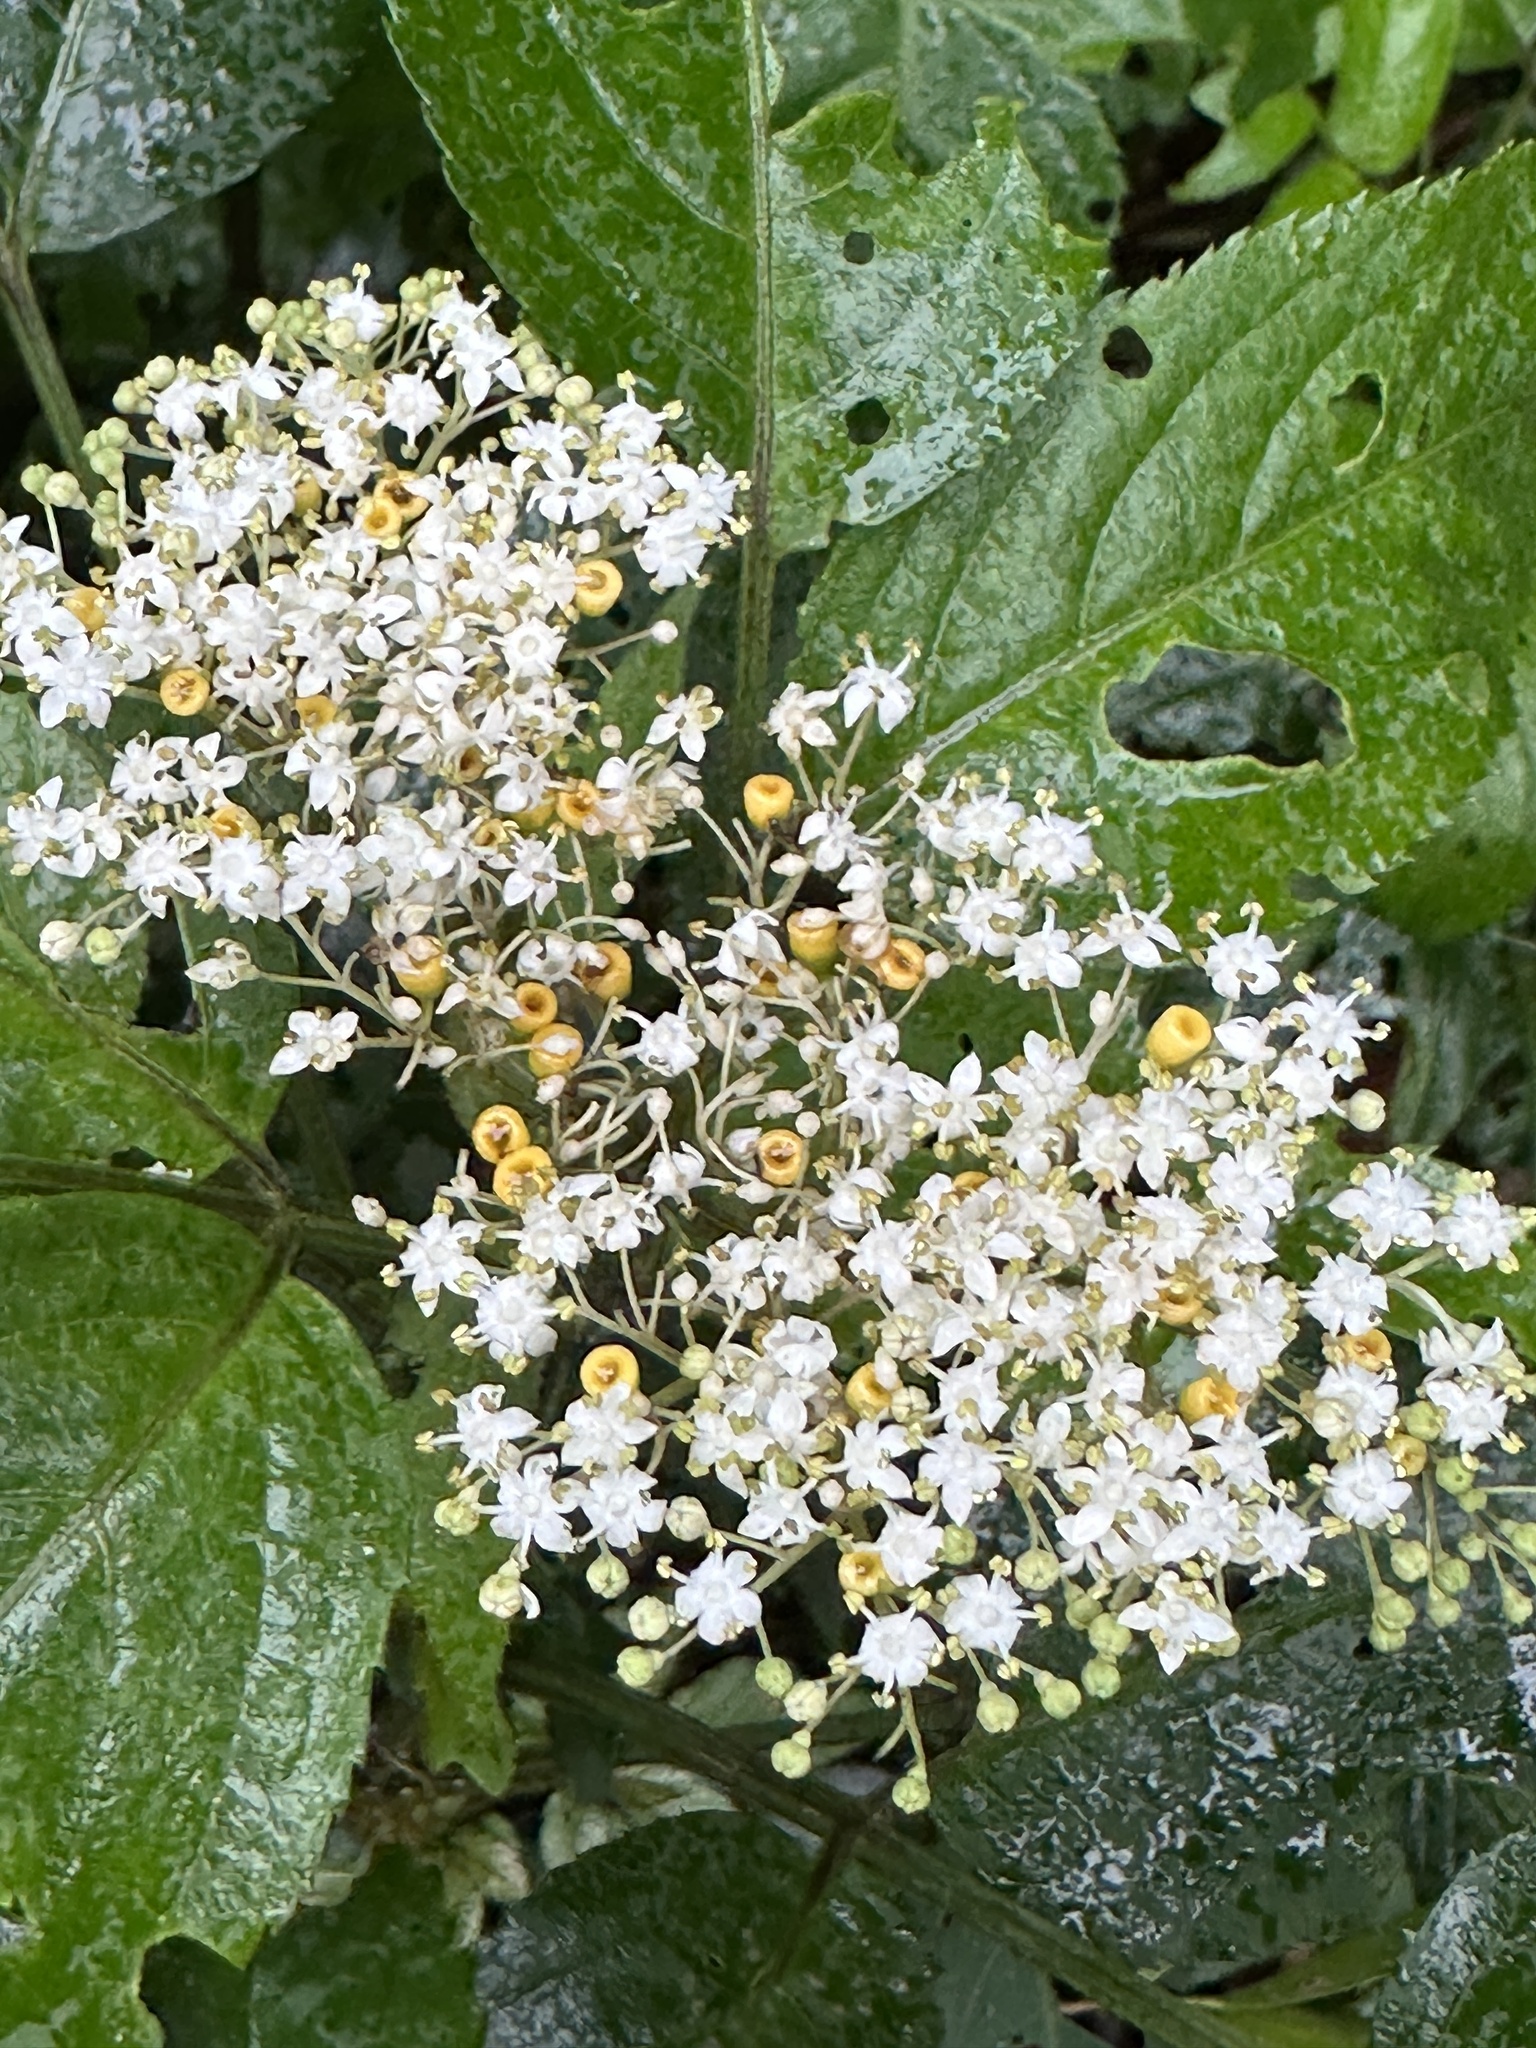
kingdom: Plantae
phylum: Tracheophyta
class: Magnoliopsida
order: Dipsacales
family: Viburnaceae
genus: Sambucus
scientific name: Sambucus javanica
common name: Chinese elder
